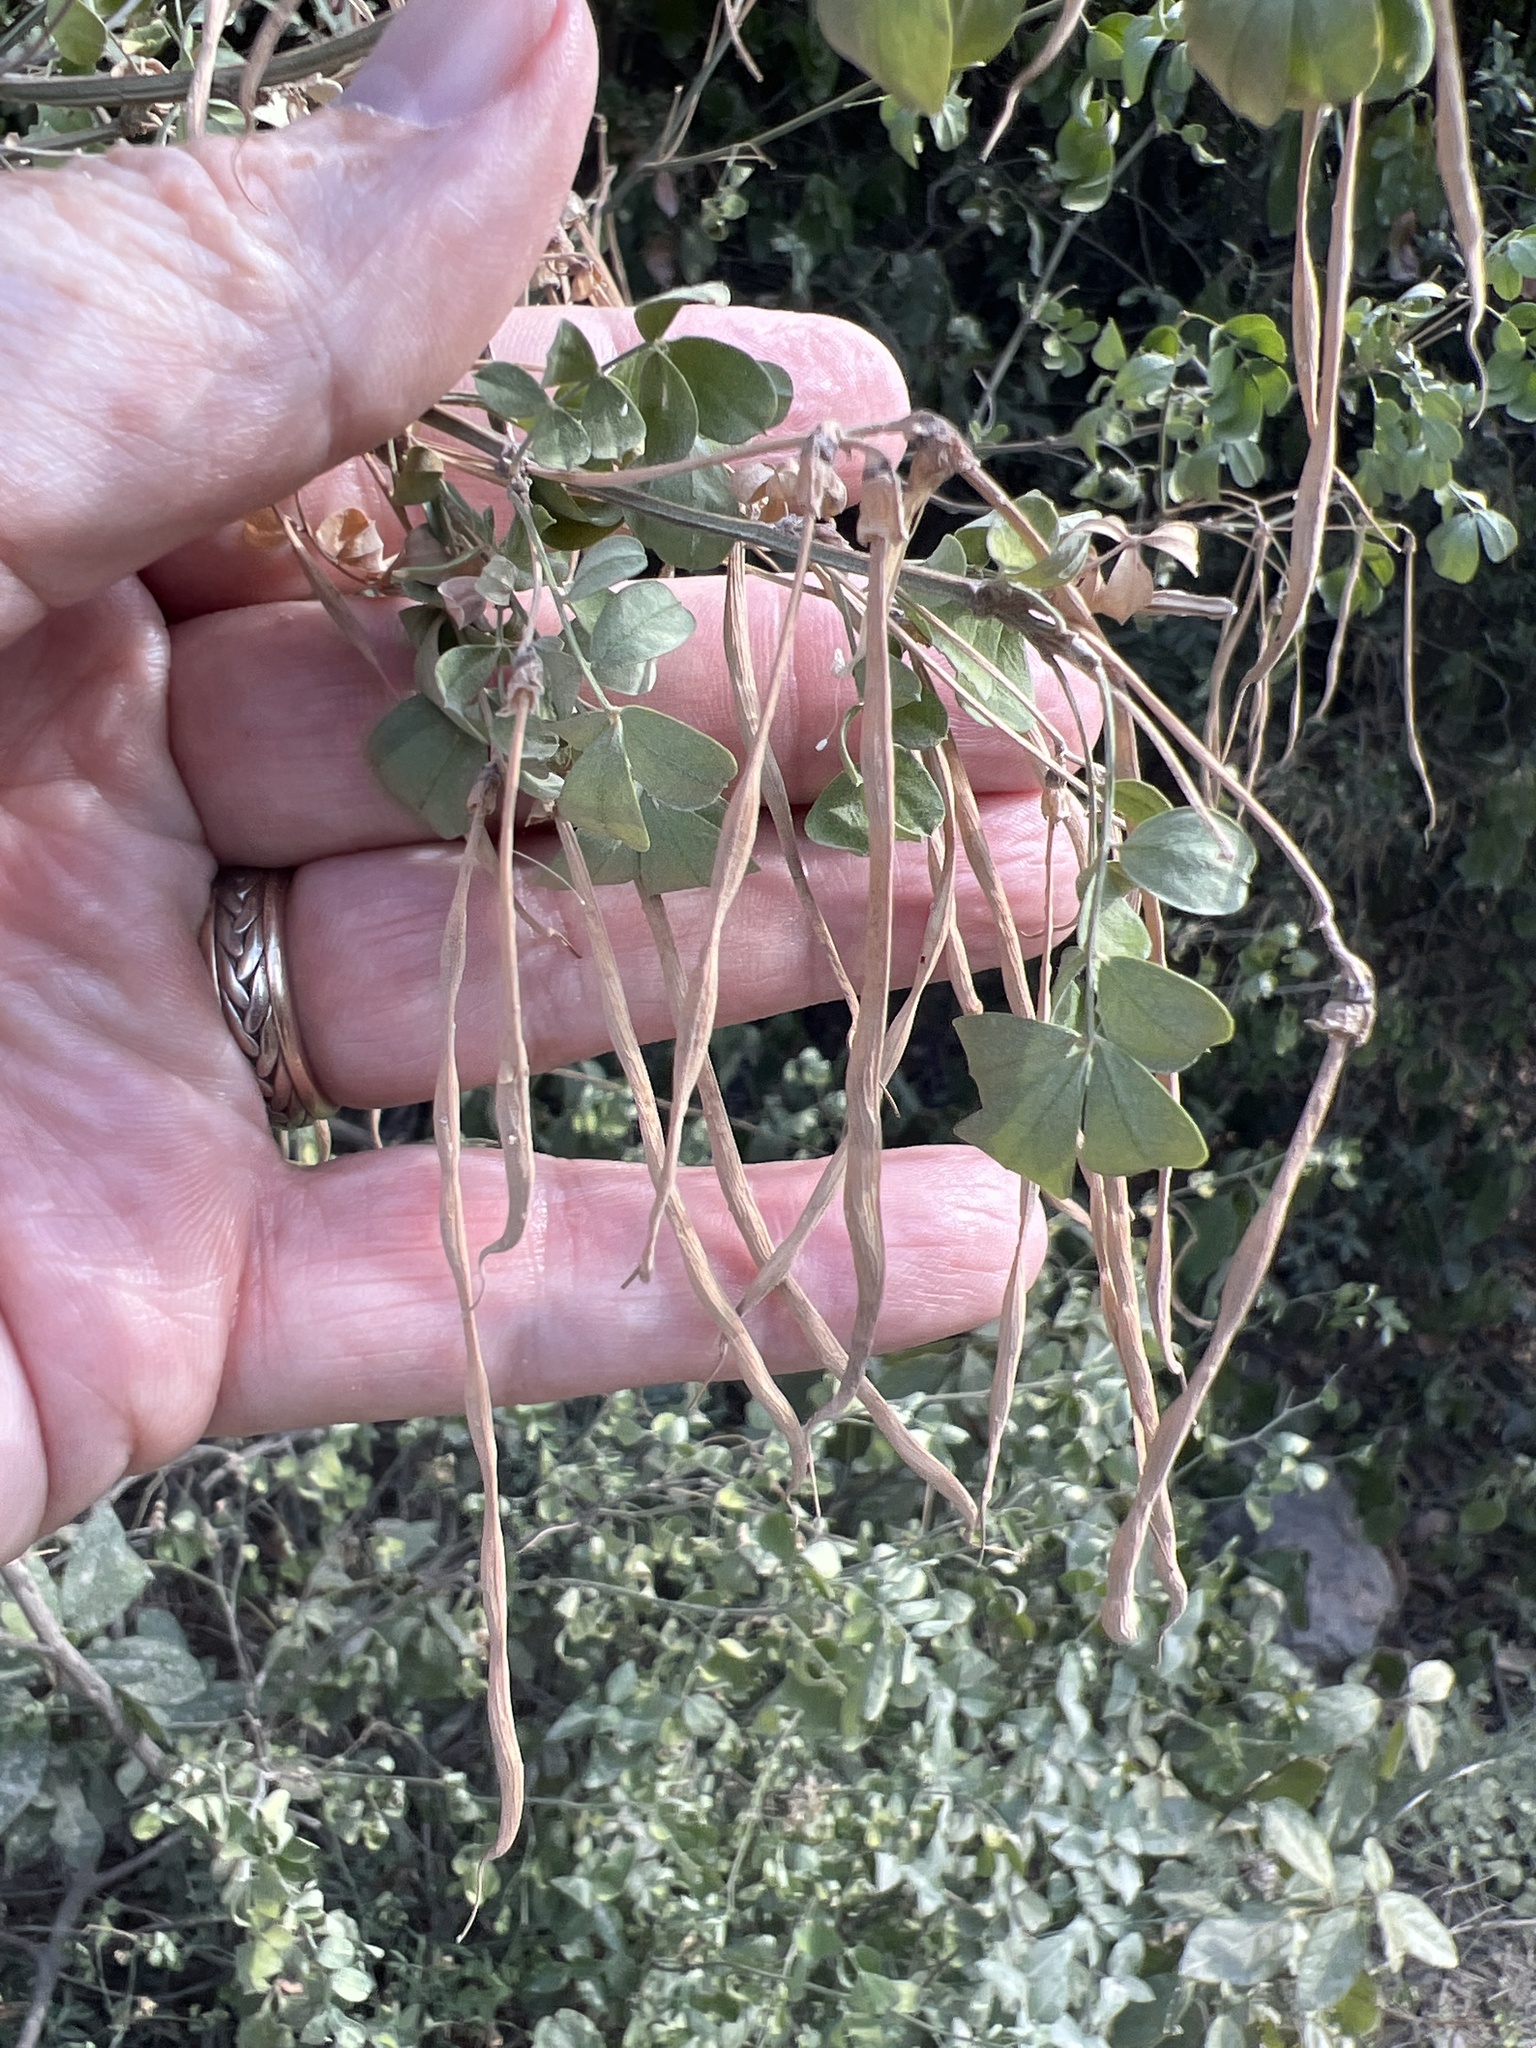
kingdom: Plantae
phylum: Tracheophyta
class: Magnoliopsida
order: Fabales
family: Fabaceae
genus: Hippocrepis
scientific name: Hippocrepis emerus
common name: Scorpion senna
